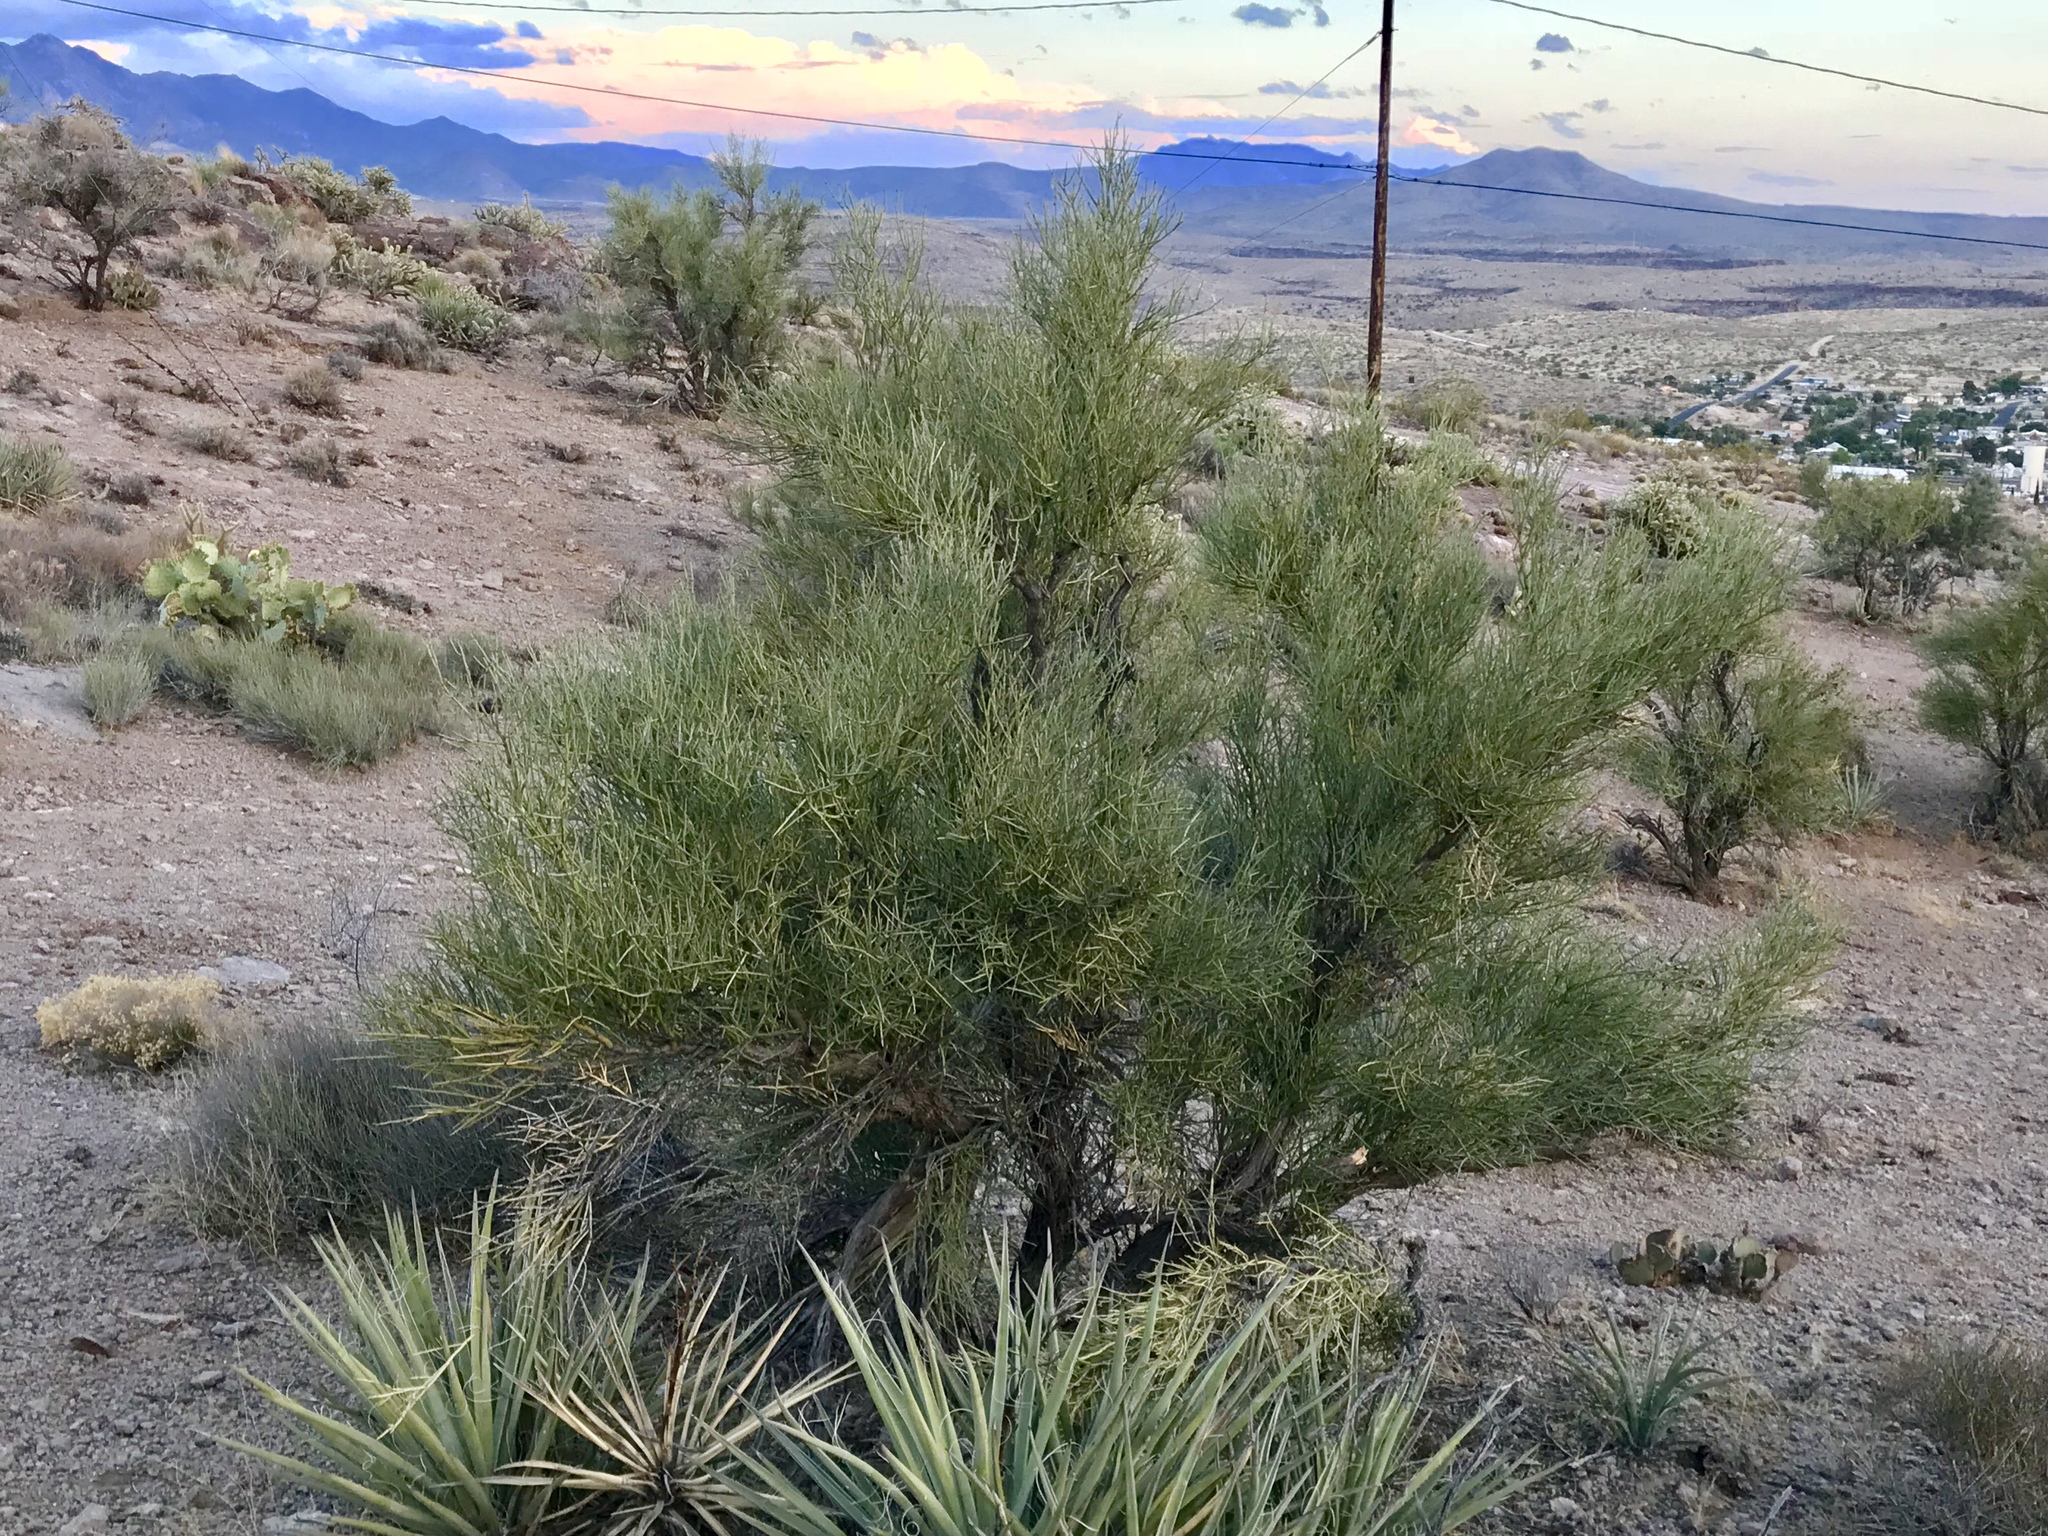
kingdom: Plantae
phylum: Tracheophyta
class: Magnoliopsida
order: Celastrales
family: Celastraceae
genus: Canotia
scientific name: Canotia holacantha
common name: Crucifixion thorns
